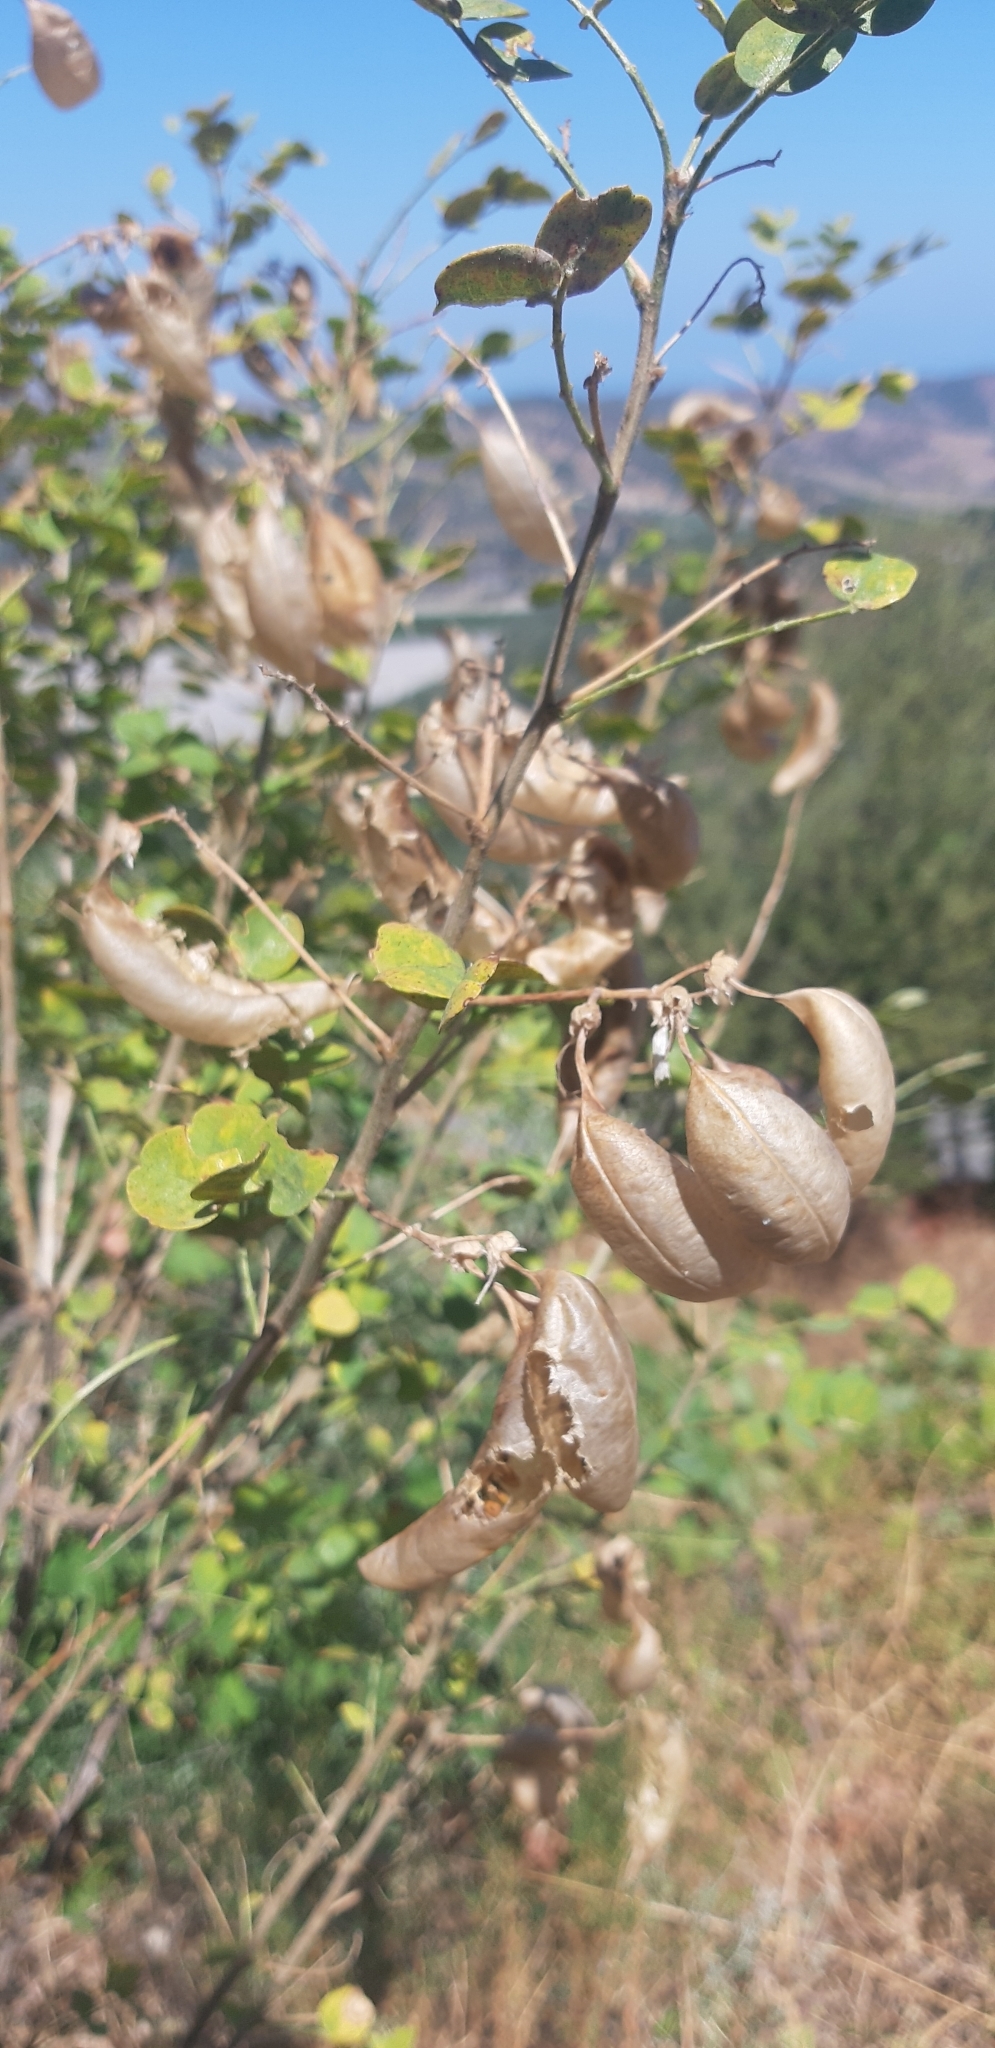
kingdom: Plantae
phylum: Tracheophyta
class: Magnoliopsida
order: Fabales
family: Fabaceae
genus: Colutea
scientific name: Colutea arborescens
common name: Bladder-senna
